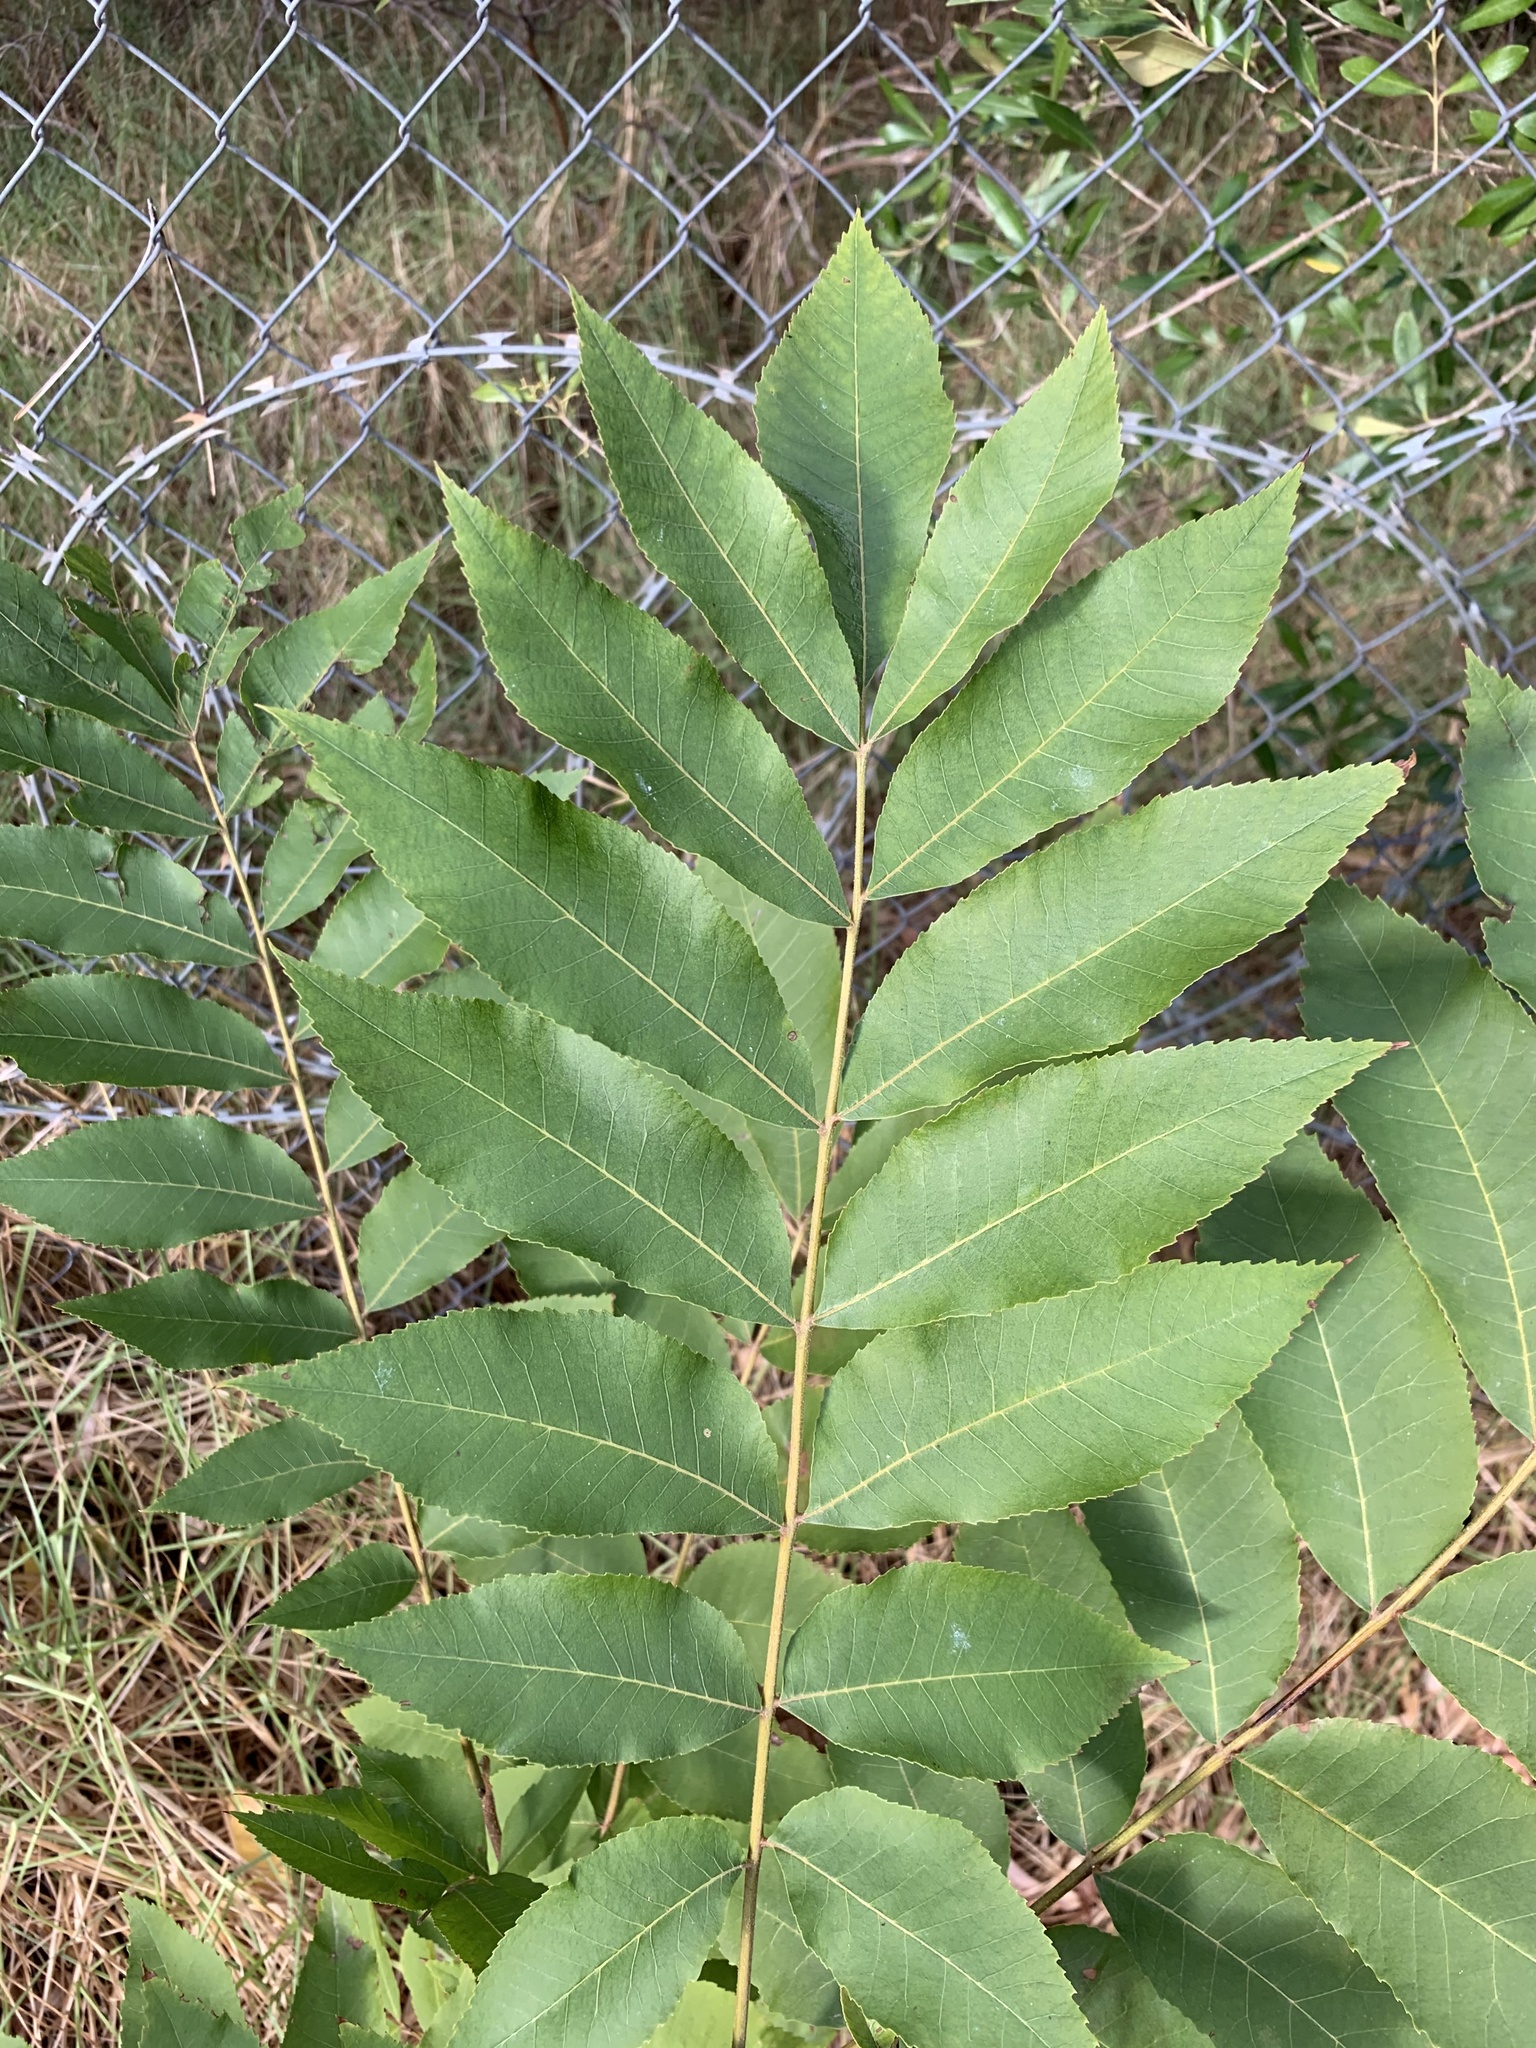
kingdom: Plantae
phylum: Tracheophyta
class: Magnoliopsida
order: Fagales
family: Juglandaceae
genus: Carya
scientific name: Carya illinoinensis
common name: Pecan
